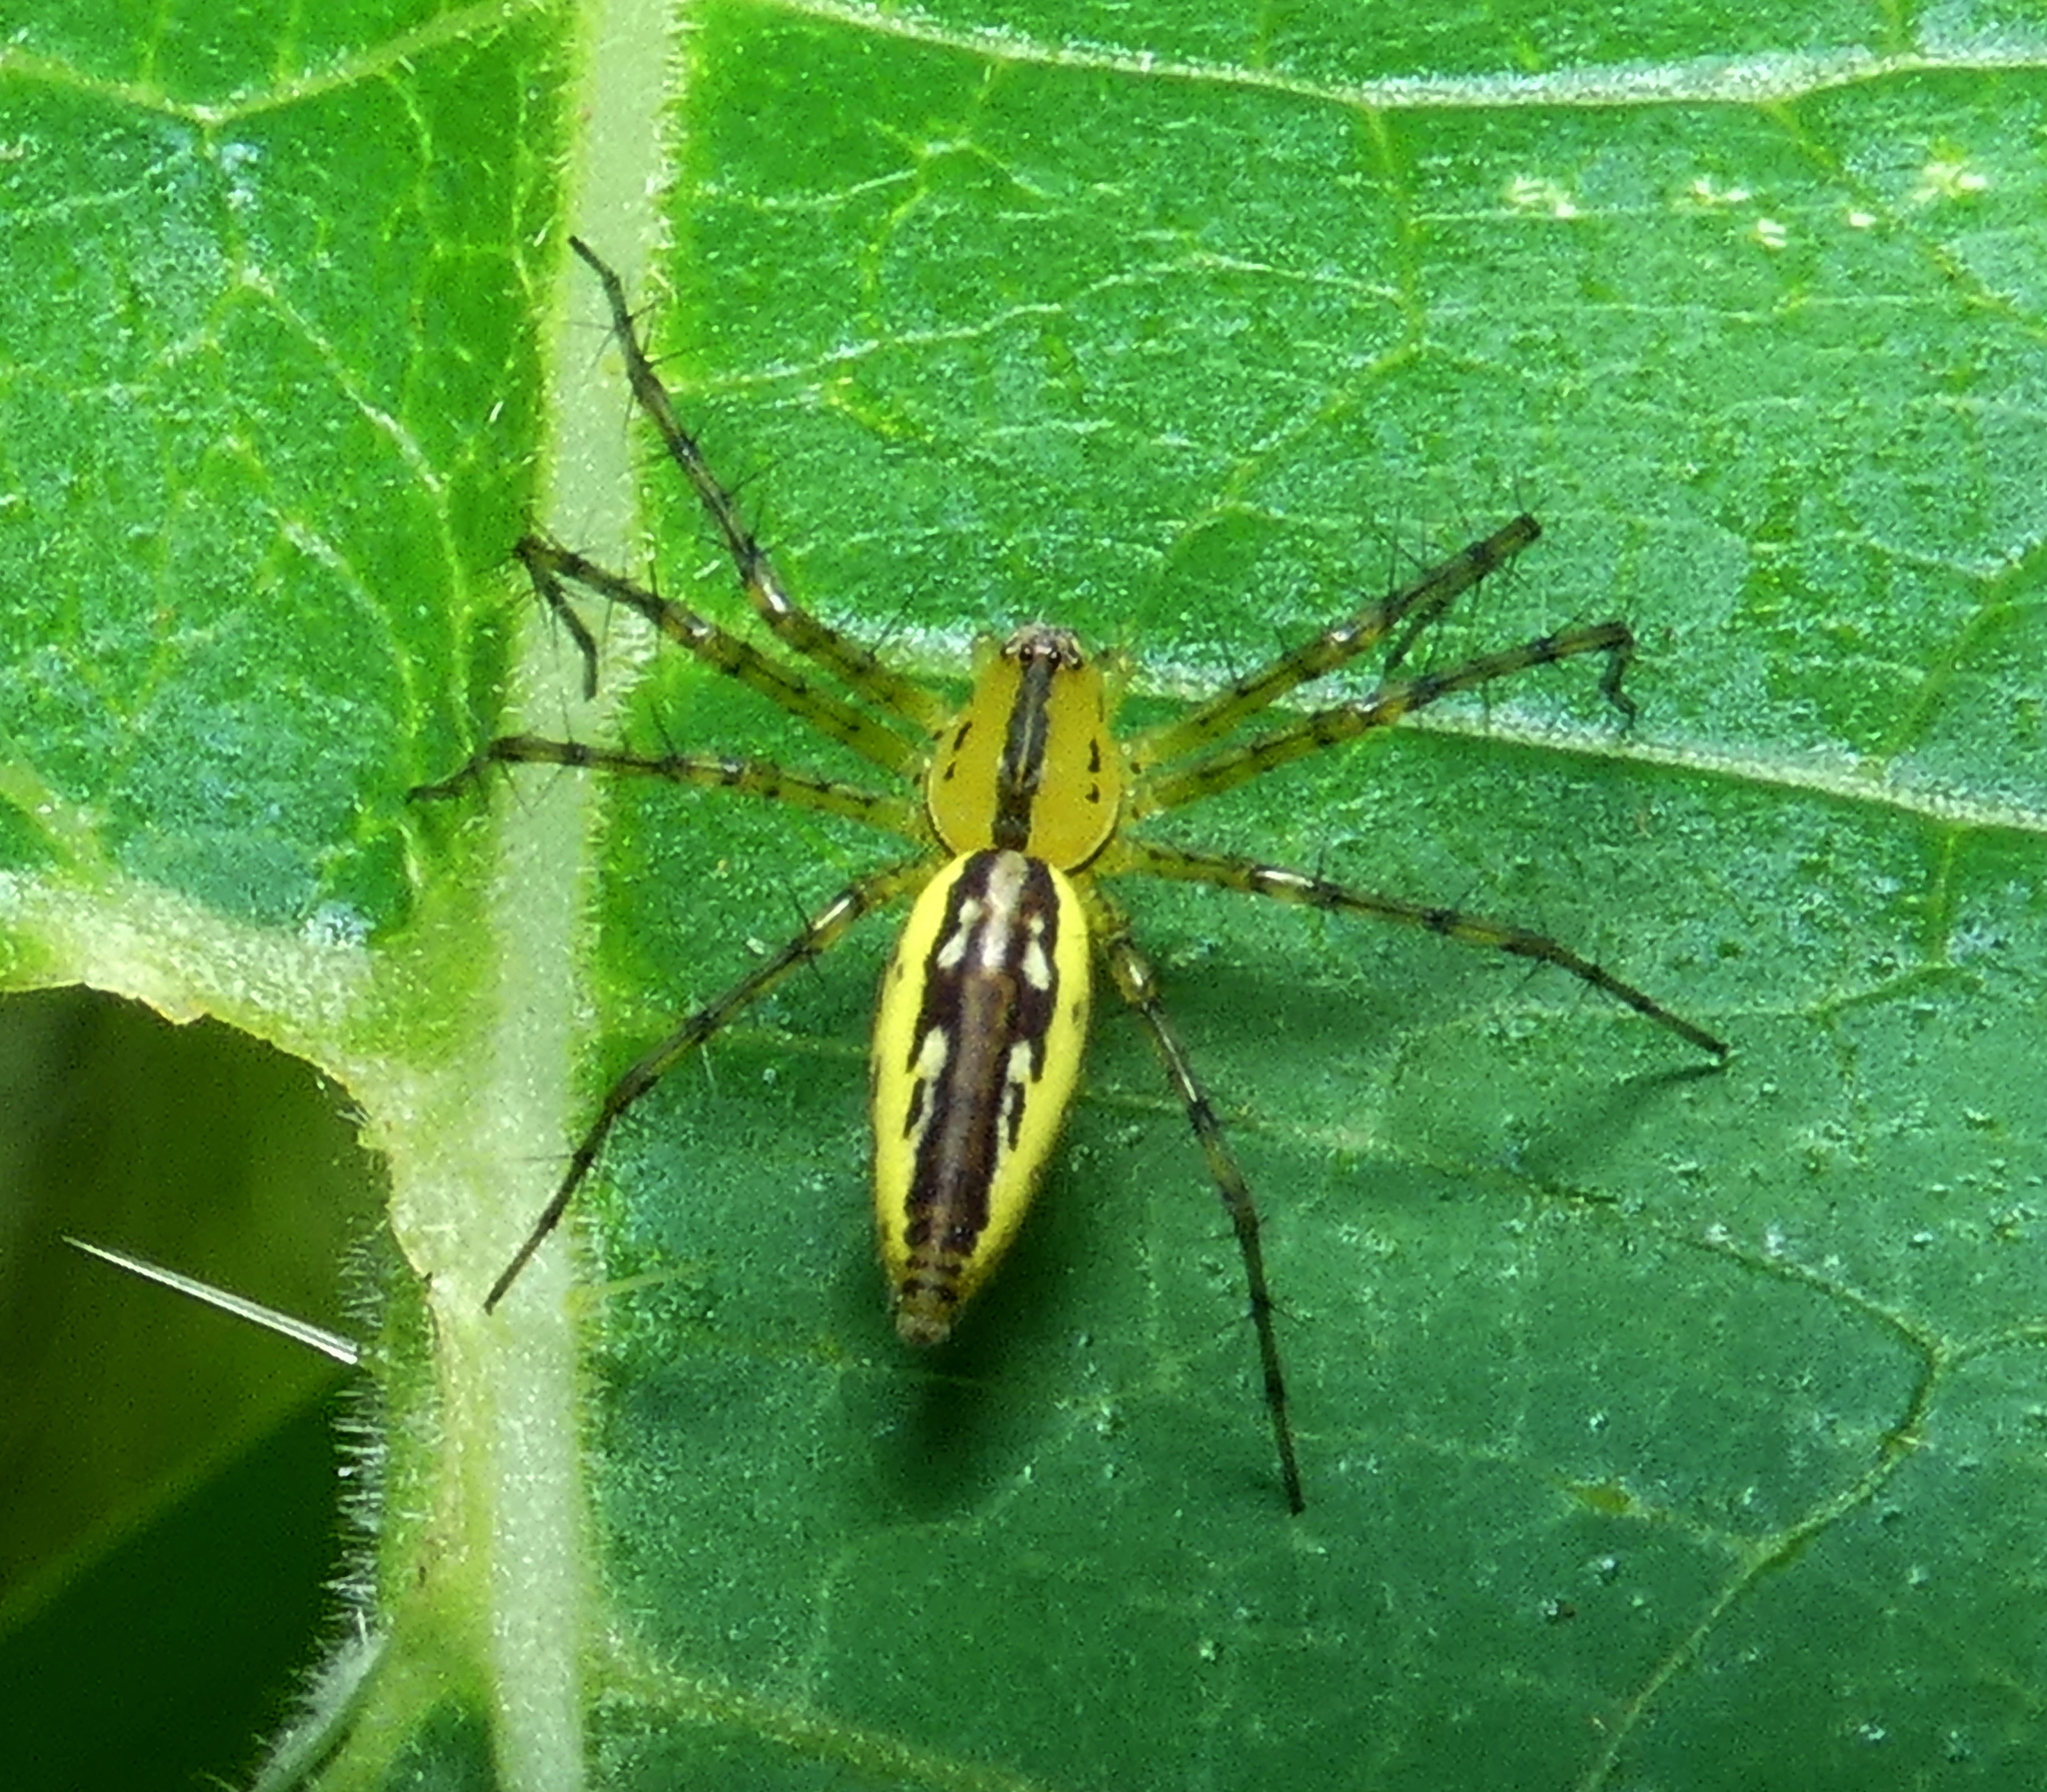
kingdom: Animalia
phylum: Arthropoda
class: Arachnida
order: Araneae
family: Oxyopidae
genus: Peucetia
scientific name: Peucetia rubrolineata
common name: Lynx spiders
